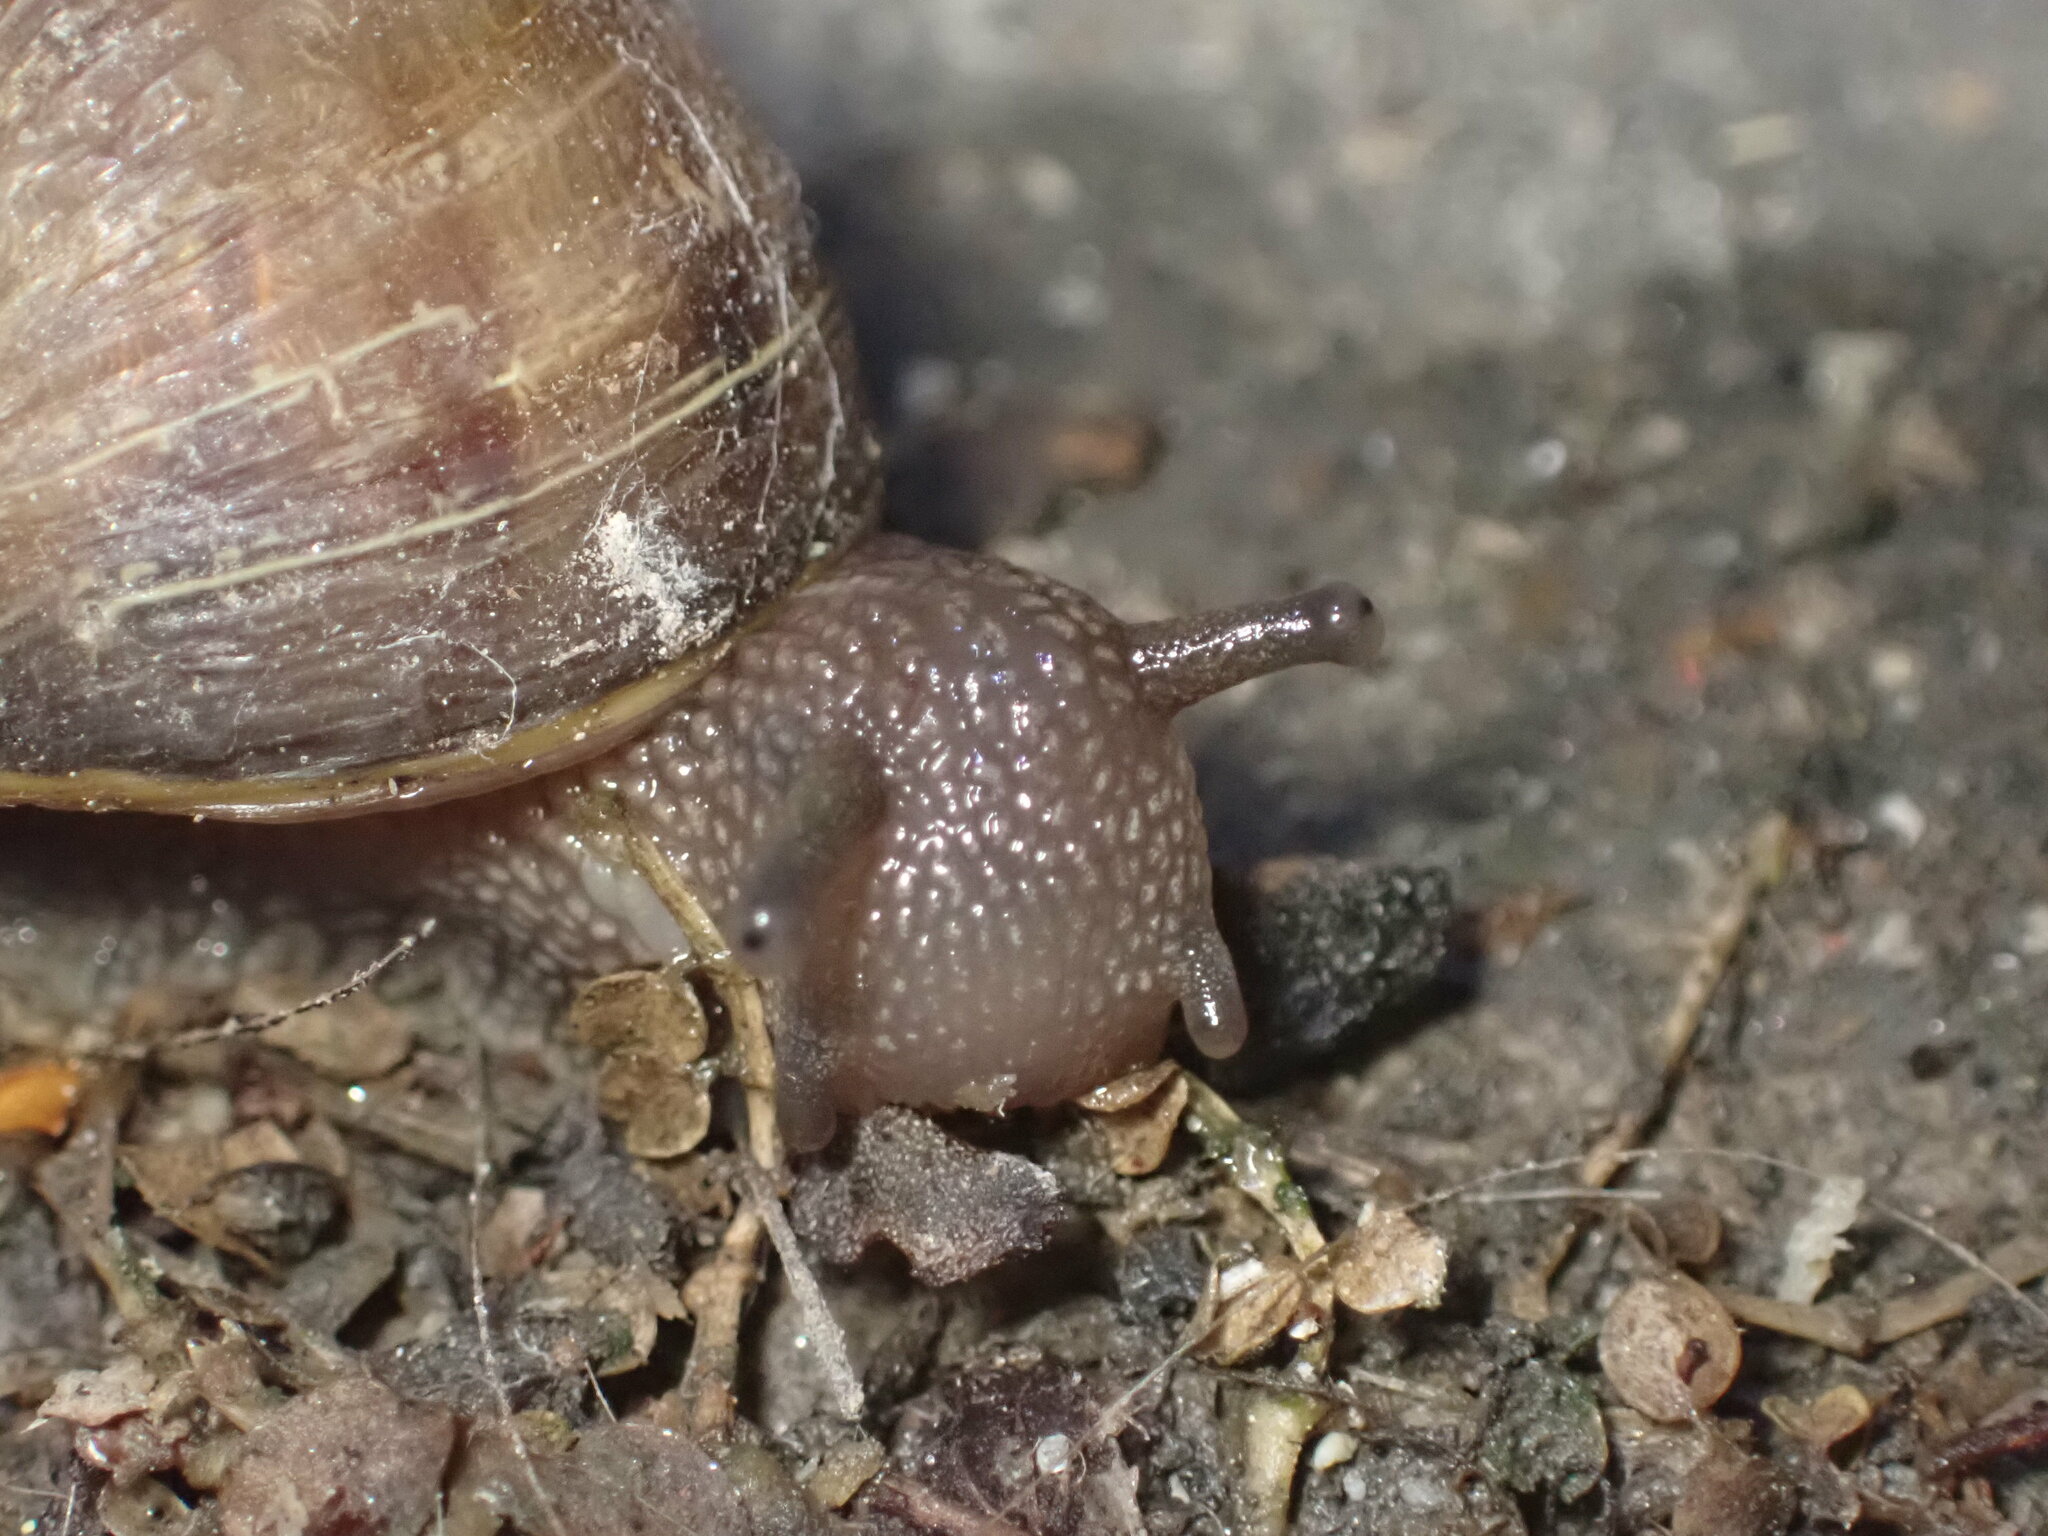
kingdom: Animalia
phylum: Mollusca
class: Gastropoda
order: Stylommatophora
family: Helicidae
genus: Cornu
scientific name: Cornu aspersum
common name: Brown garden snail
